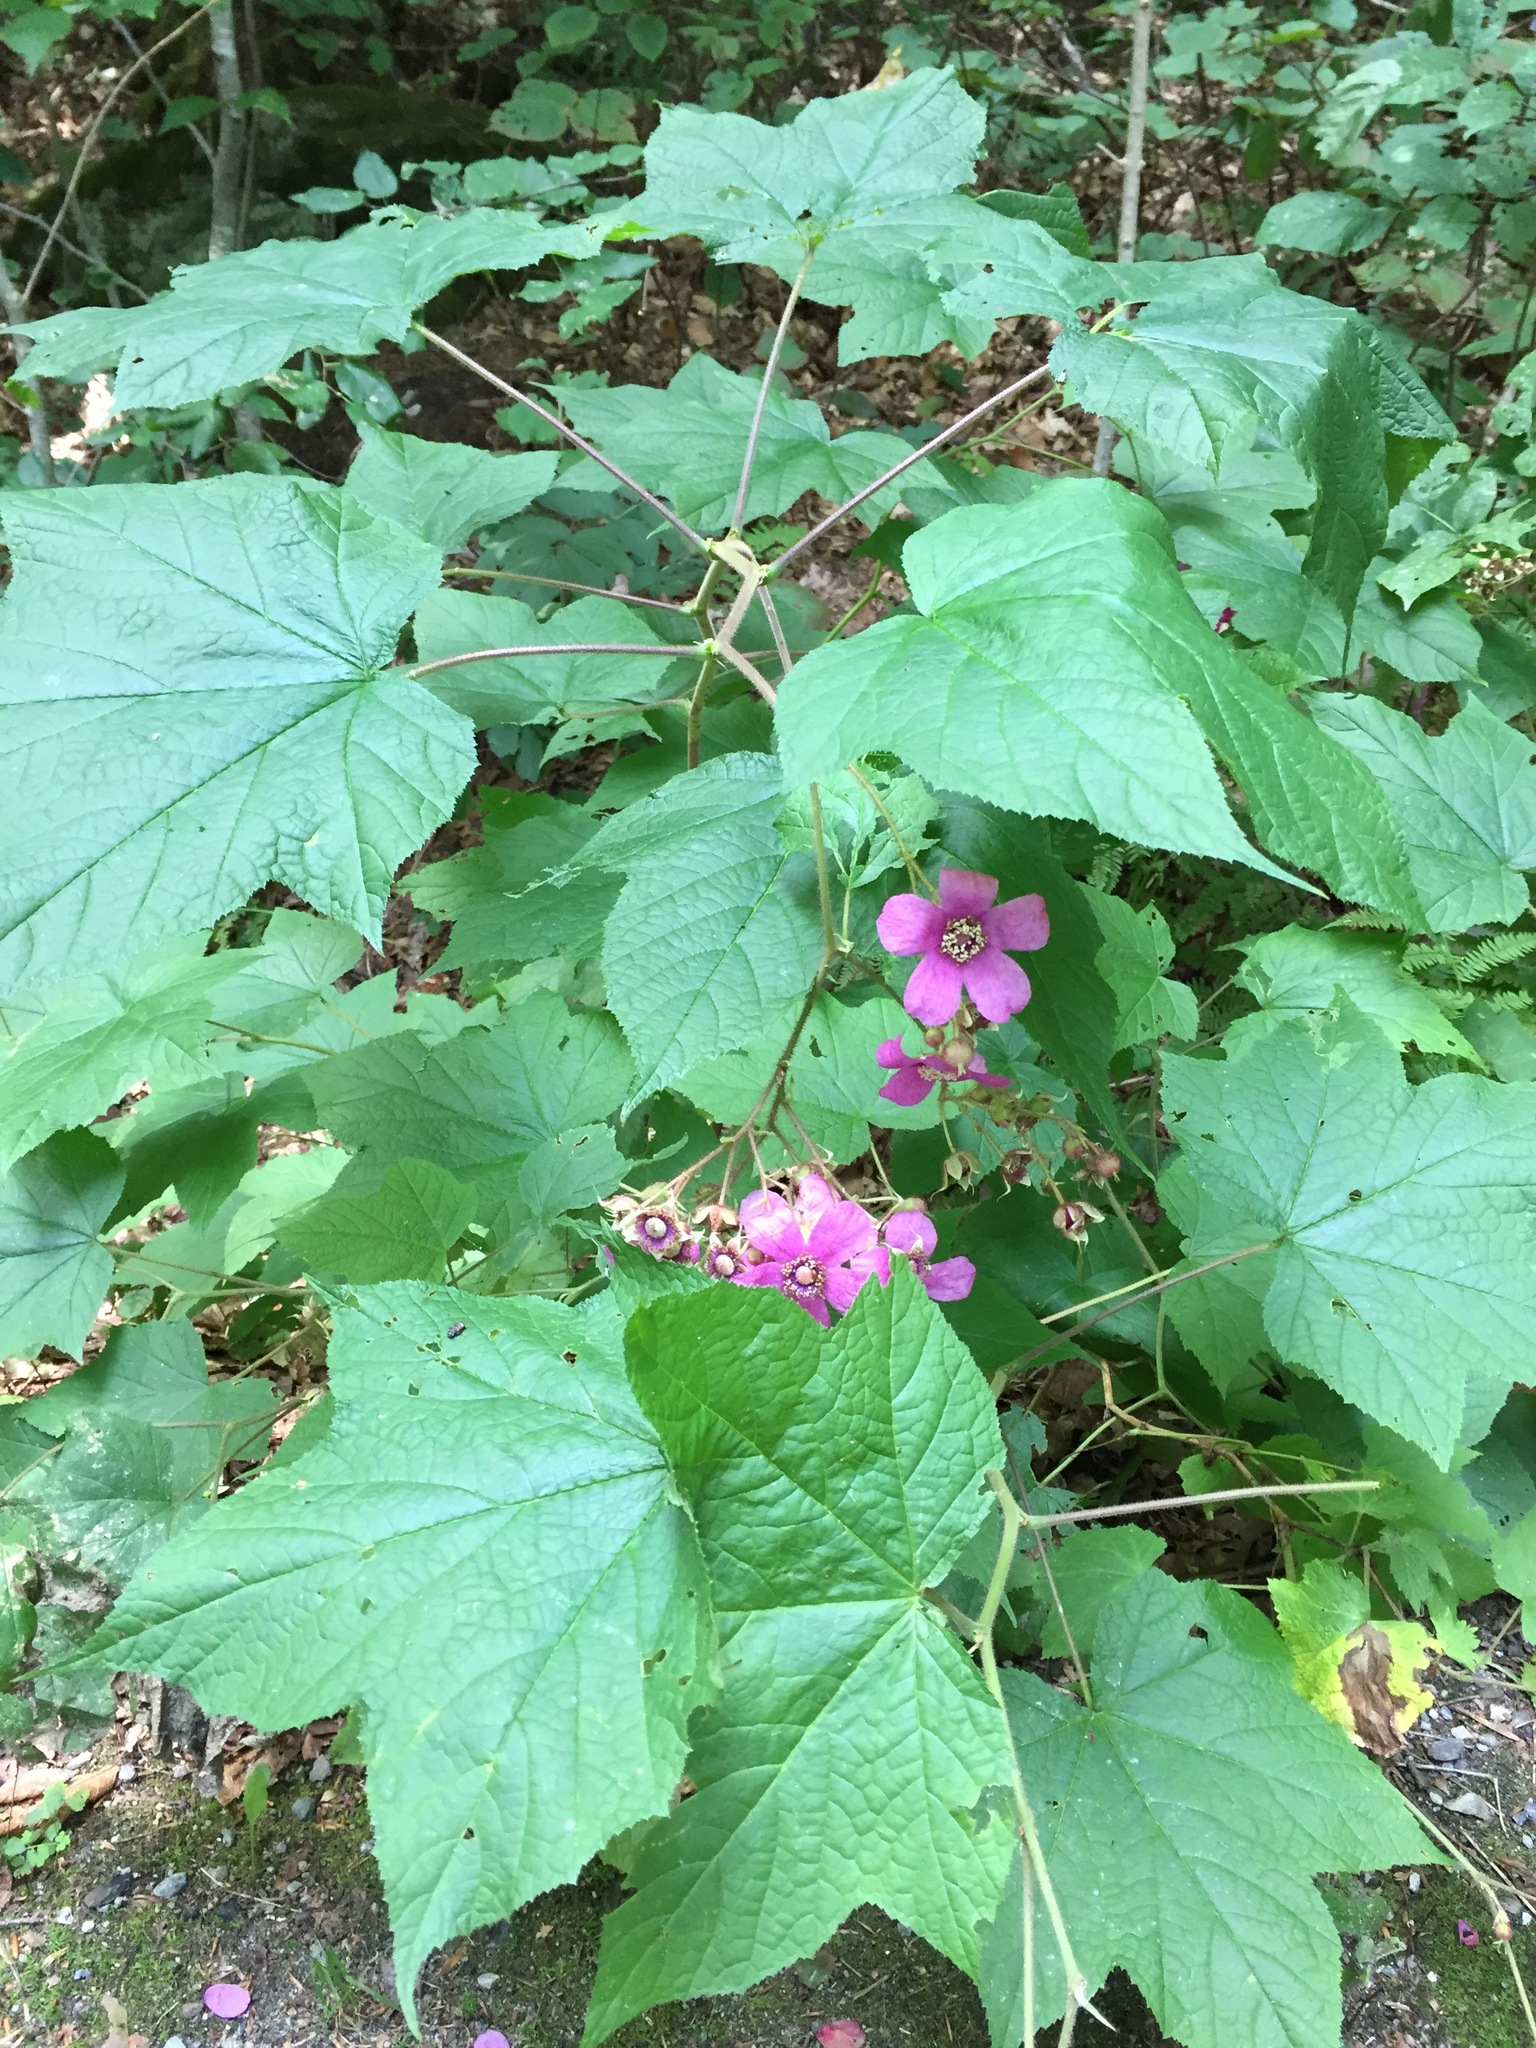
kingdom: Plantae
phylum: Tracheophyta
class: Magnoliopsida
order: Rosales
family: Rosaceae
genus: Rubus
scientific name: Rubus odoratus
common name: Purple-flowered raspberry
